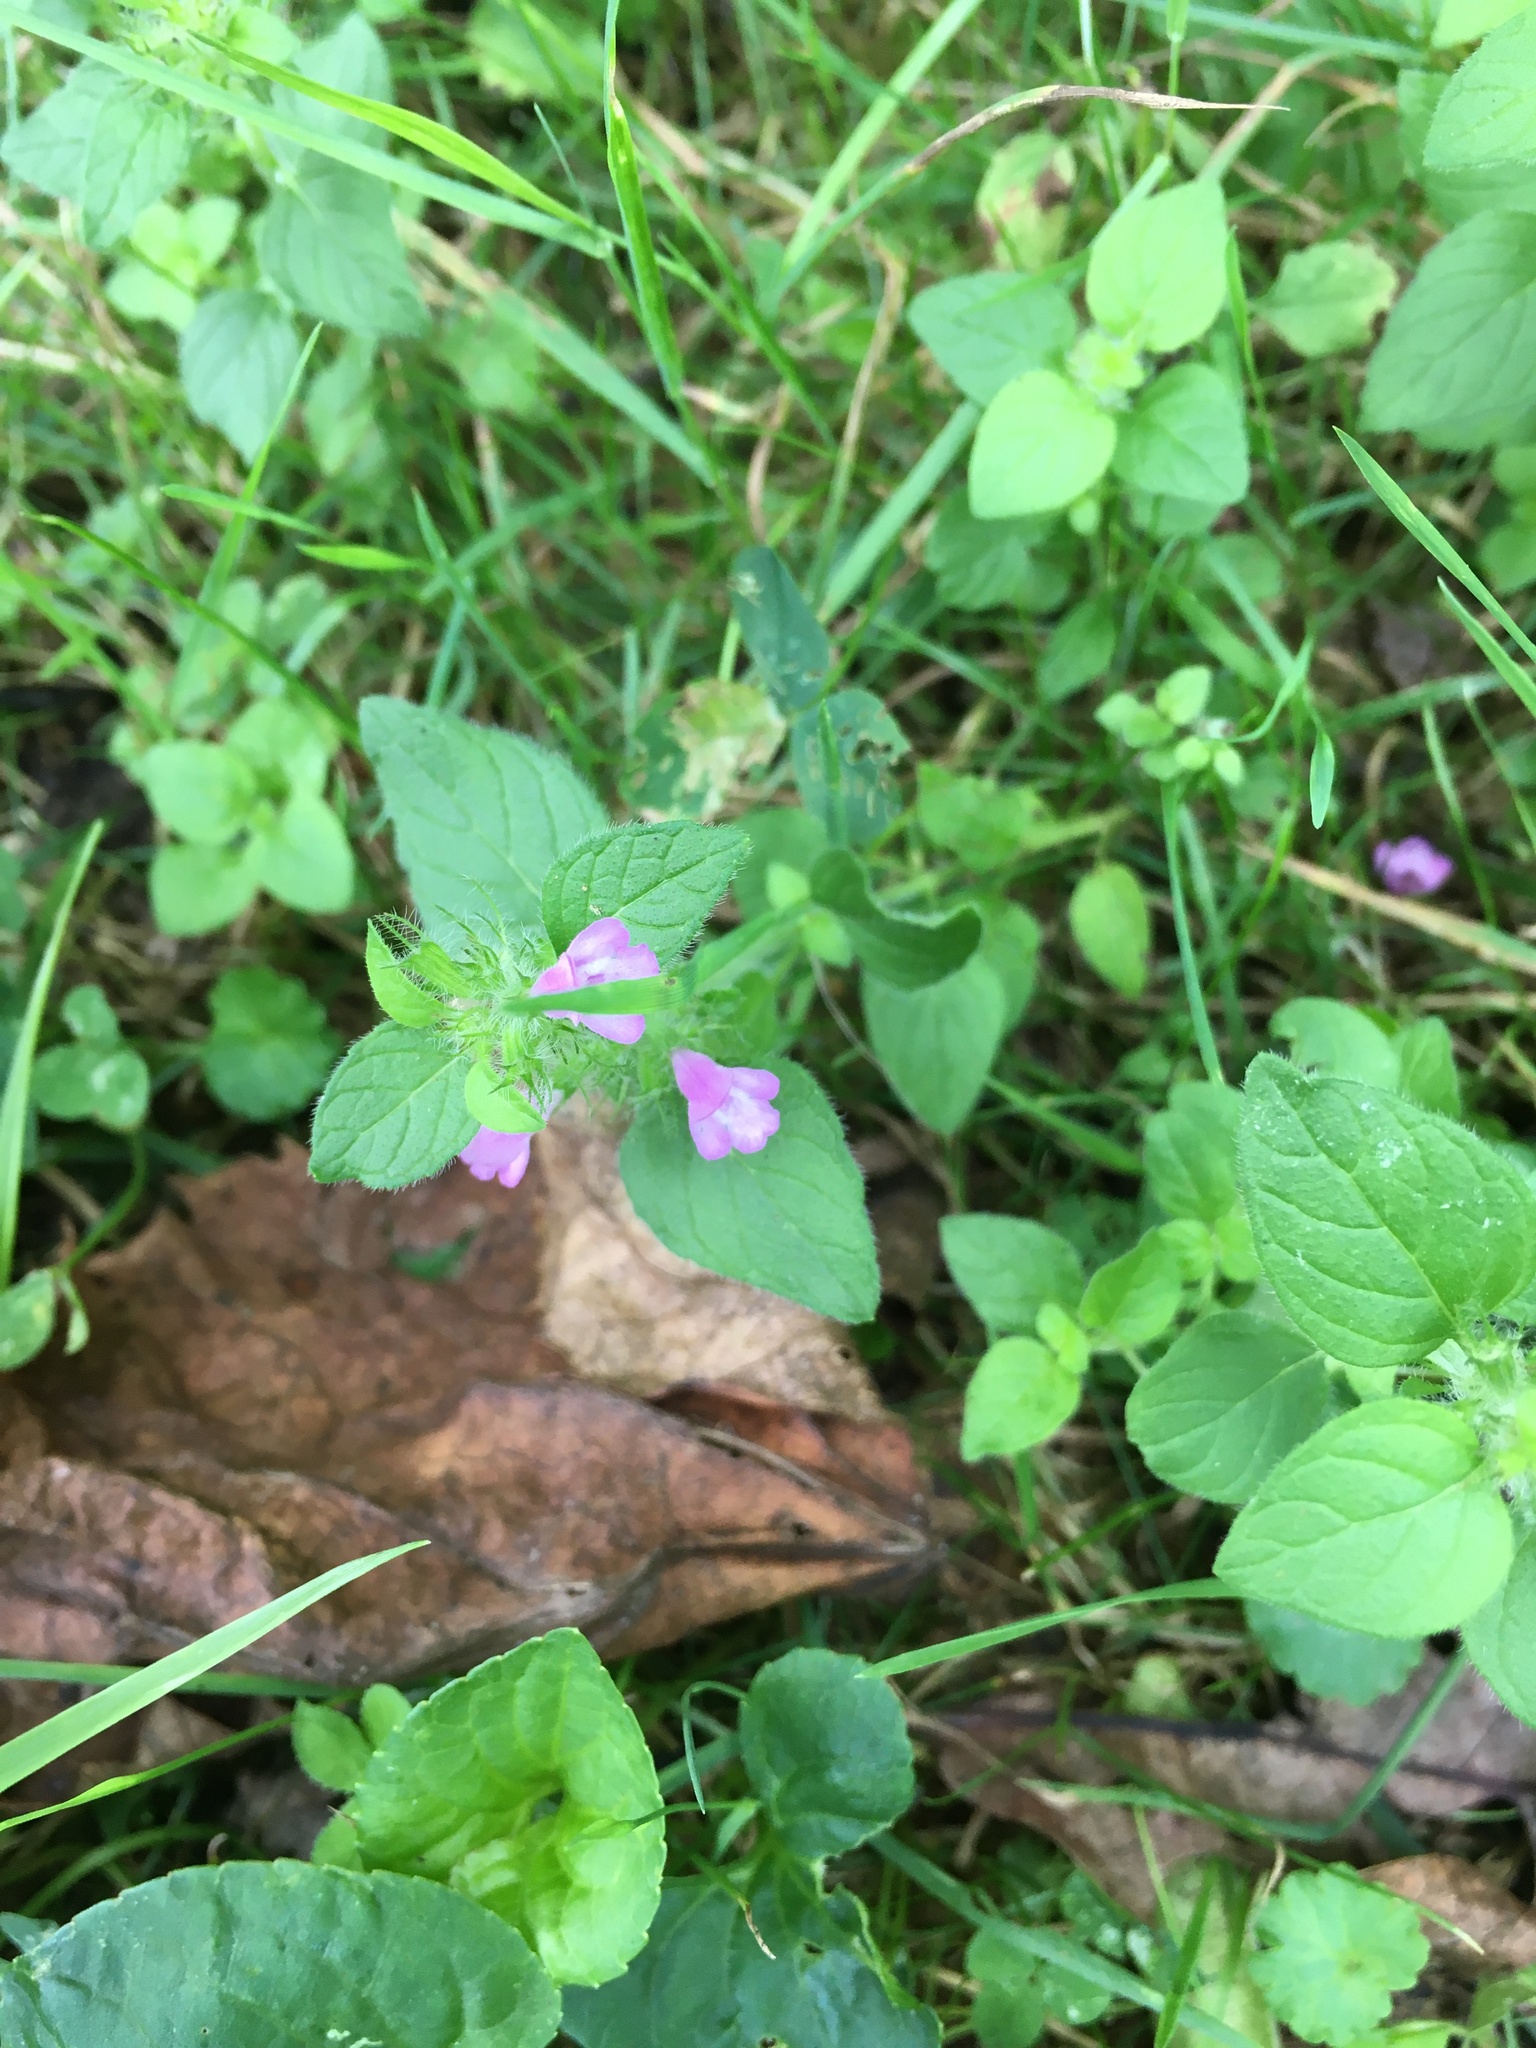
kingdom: Plantae
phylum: Tracheophyta
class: Magnoliopsida
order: Lamiales
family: Lamiaceae
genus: Clinopodium
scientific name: Clinopodium vulgare
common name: Wild basil
